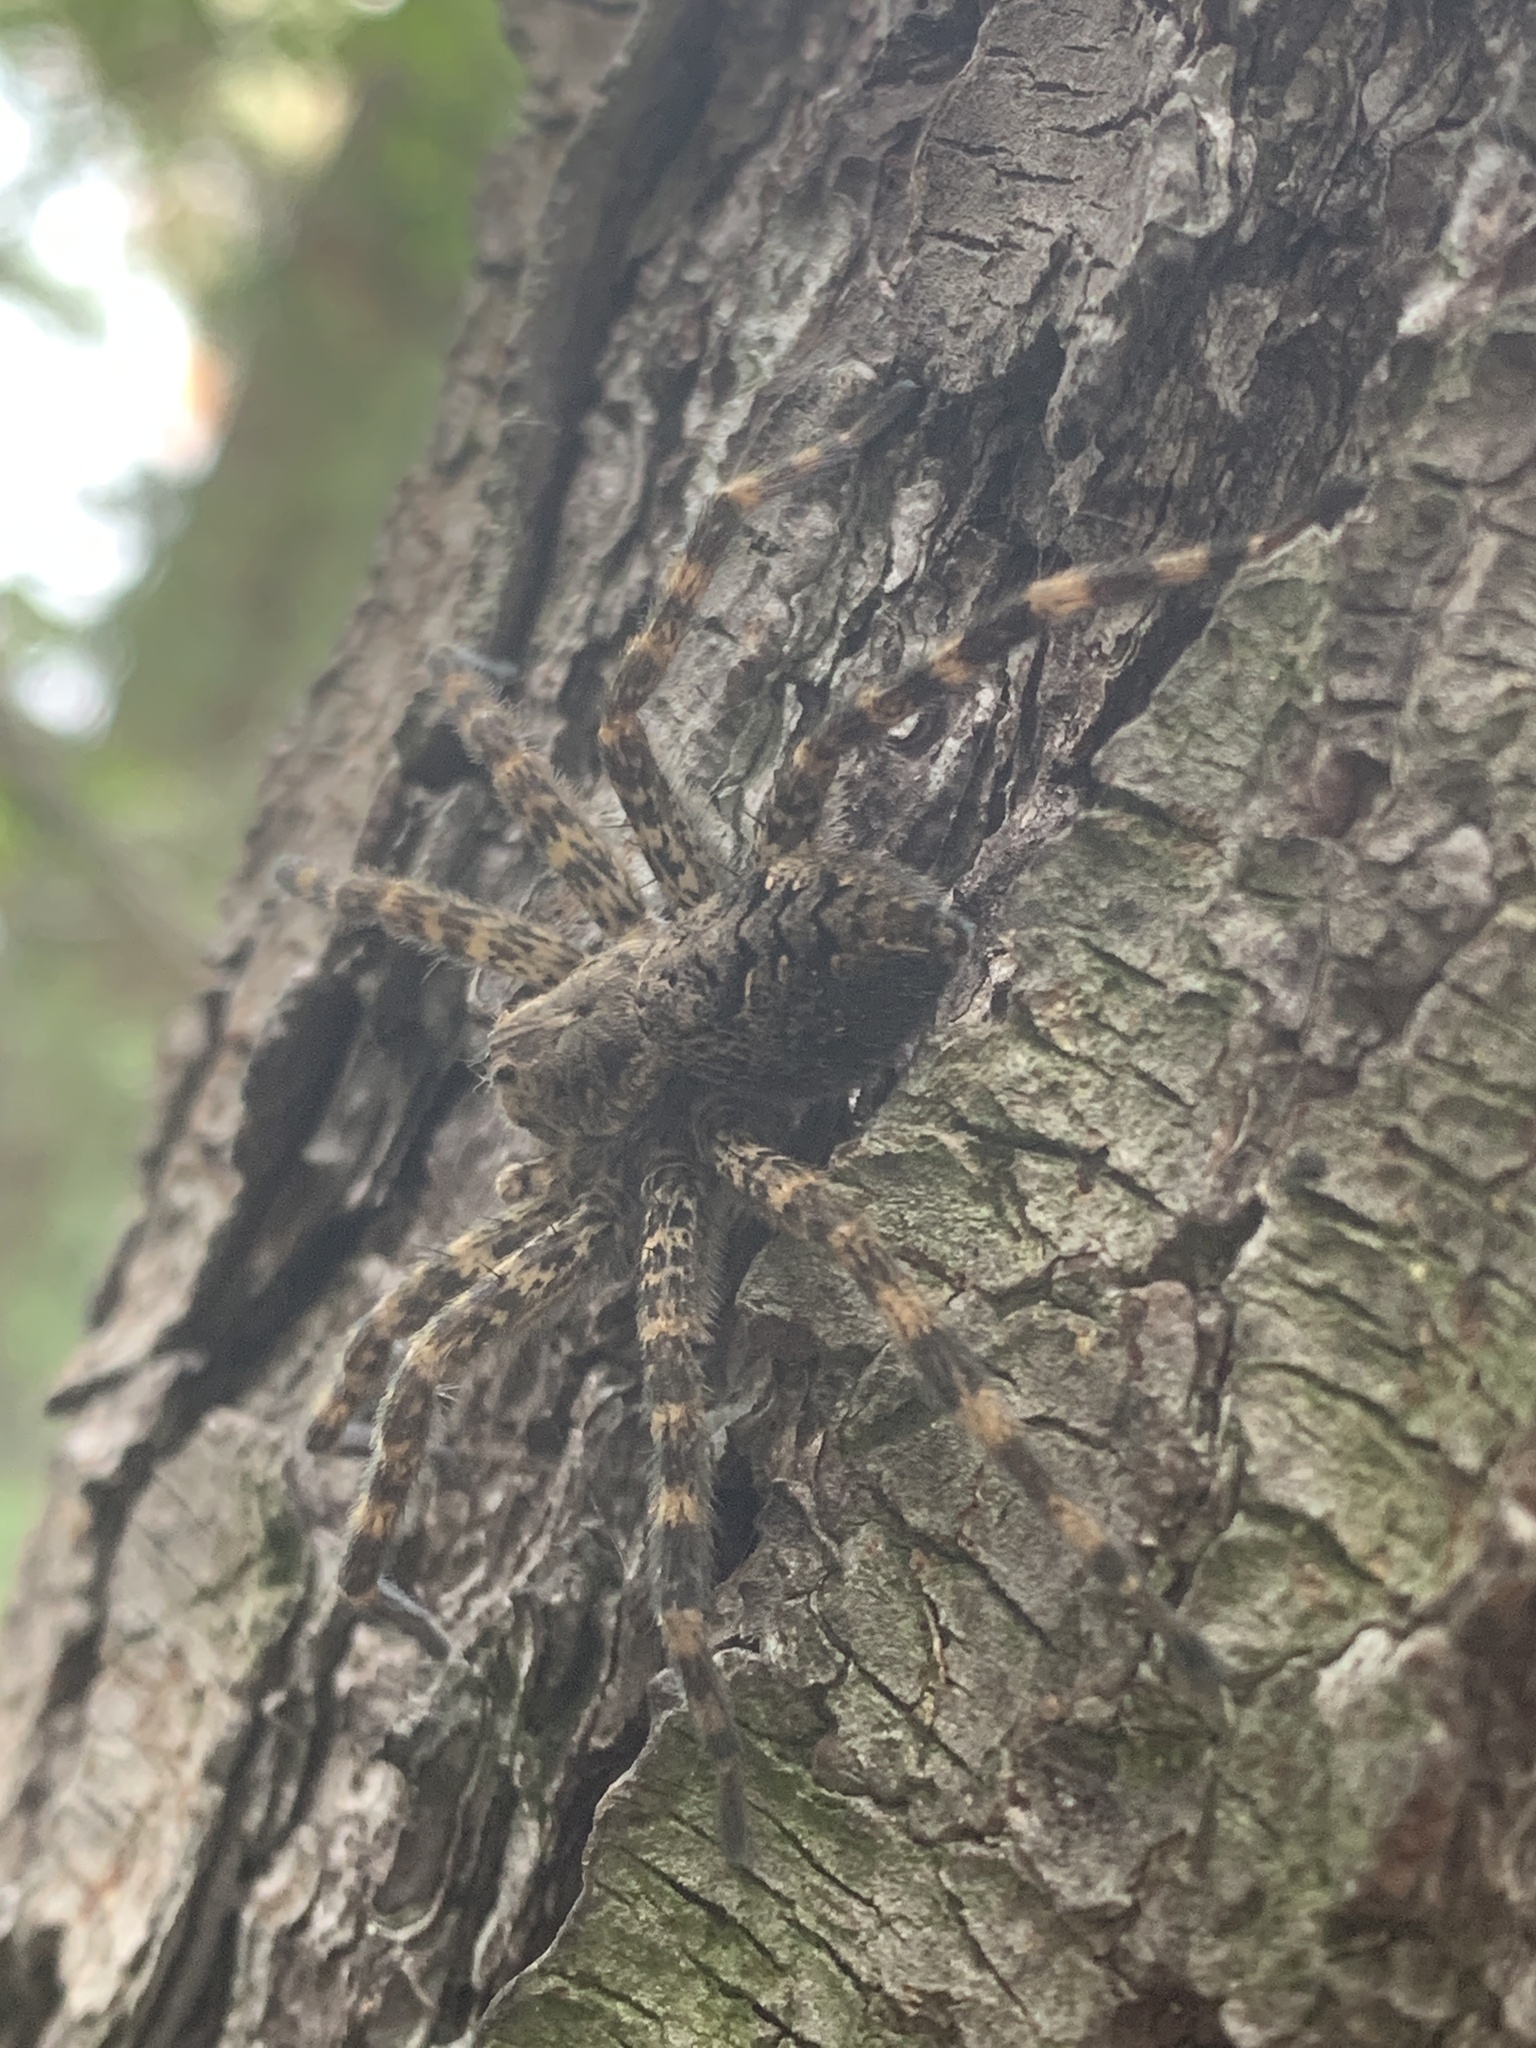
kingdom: Animalia
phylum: Arthropoda
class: Arachnida
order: Araneae
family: Pisauridae
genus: Dolomedes
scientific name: Dolomedes tenebrosus
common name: Dark fishing spider
